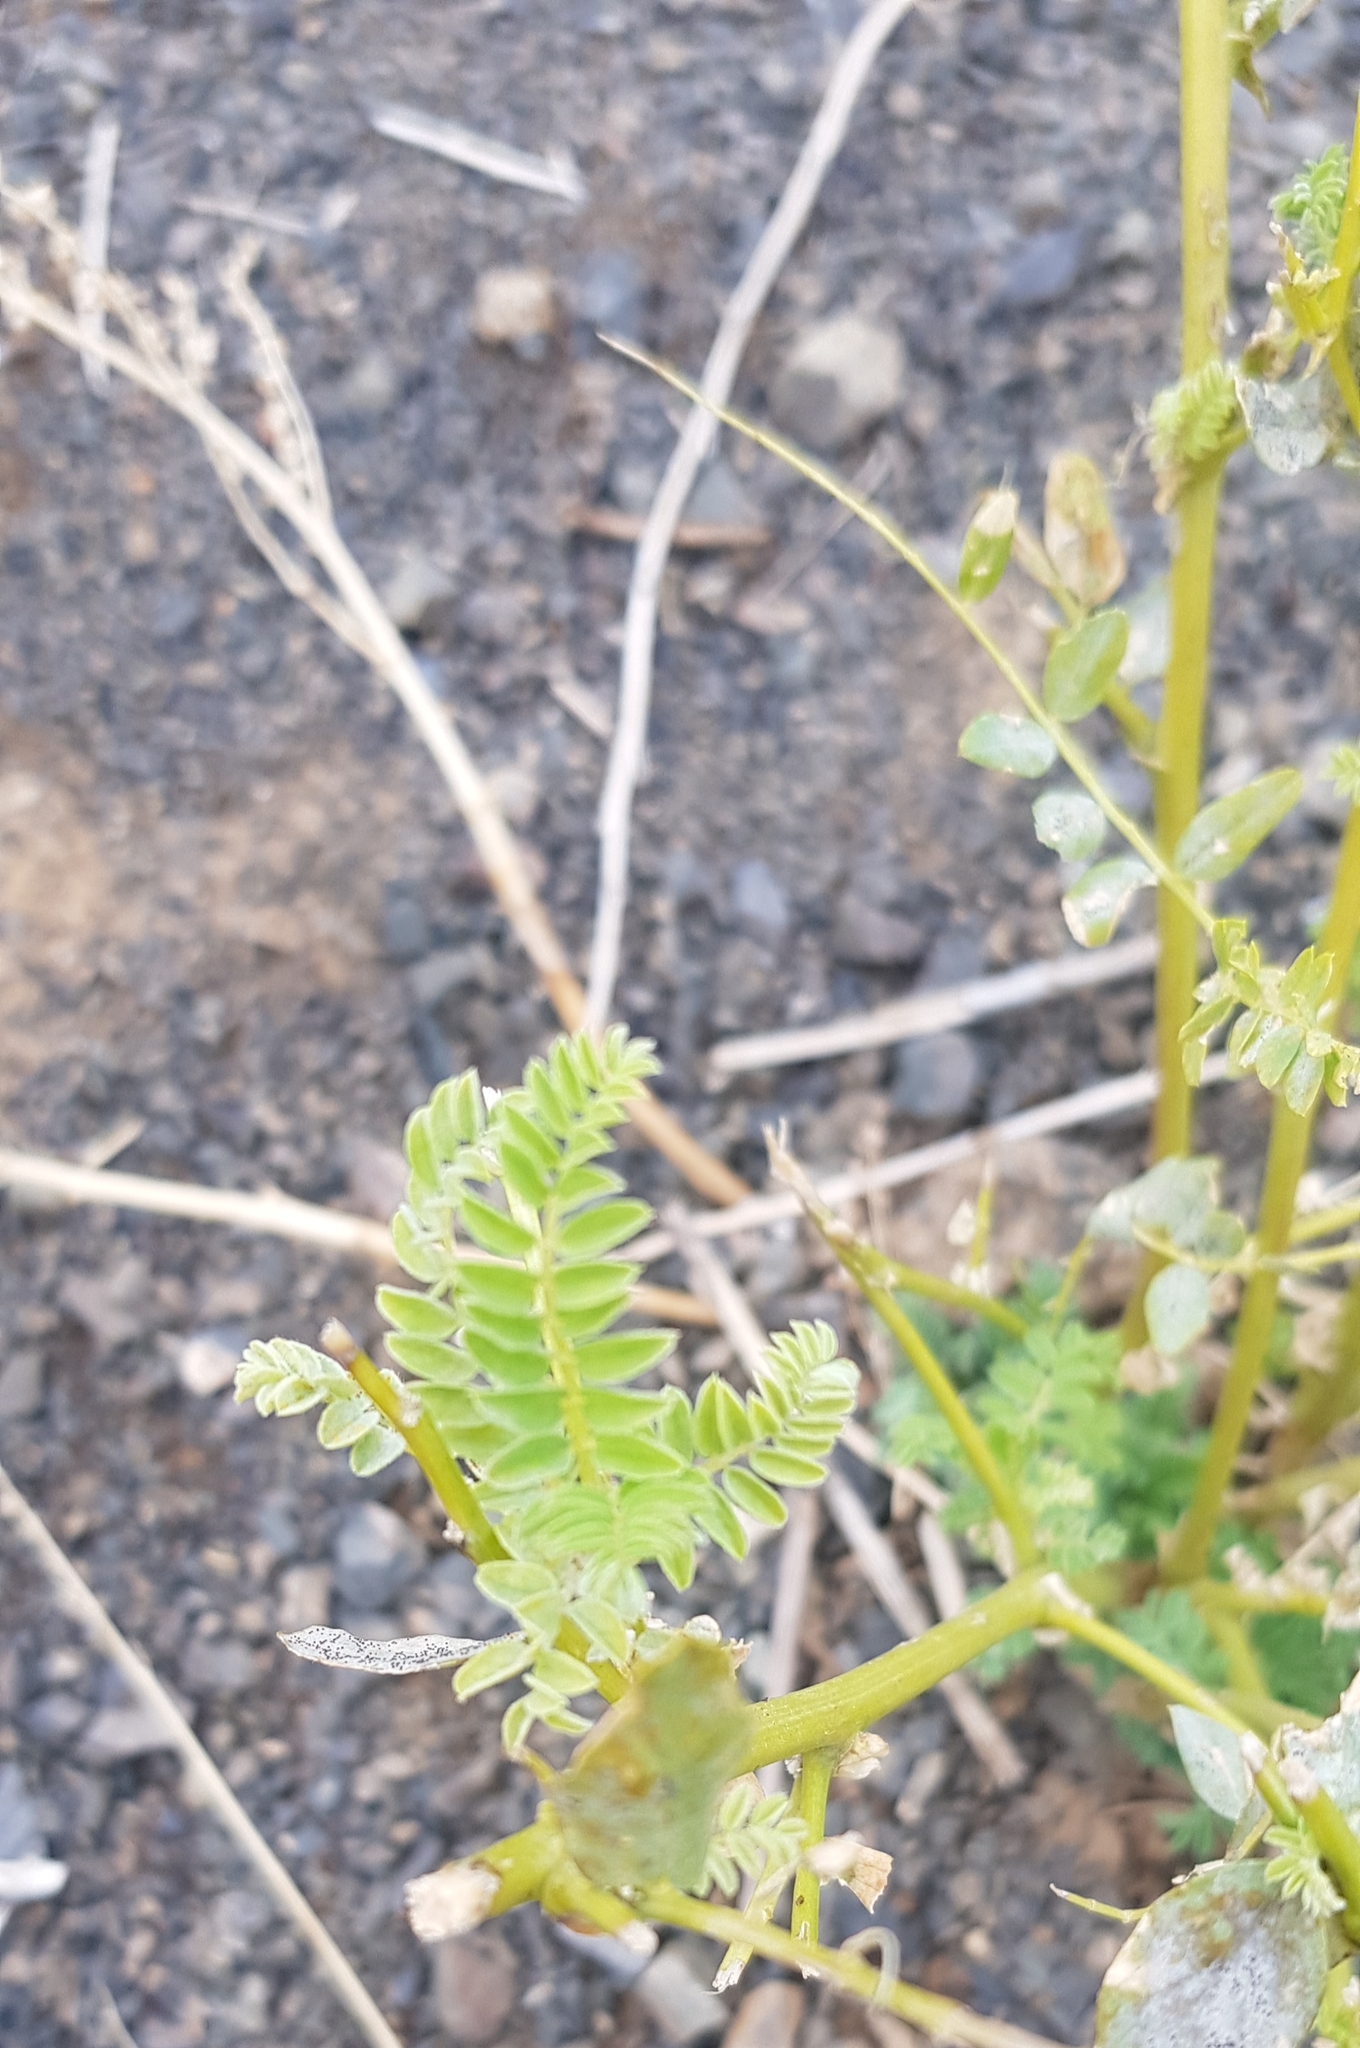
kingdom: Plantae
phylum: Tracheophyta
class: Magnoliopsida
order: Fabales
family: Fabaceae
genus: Astragalus
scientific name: Astragalus chinensis
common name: Chinese milkvetch
